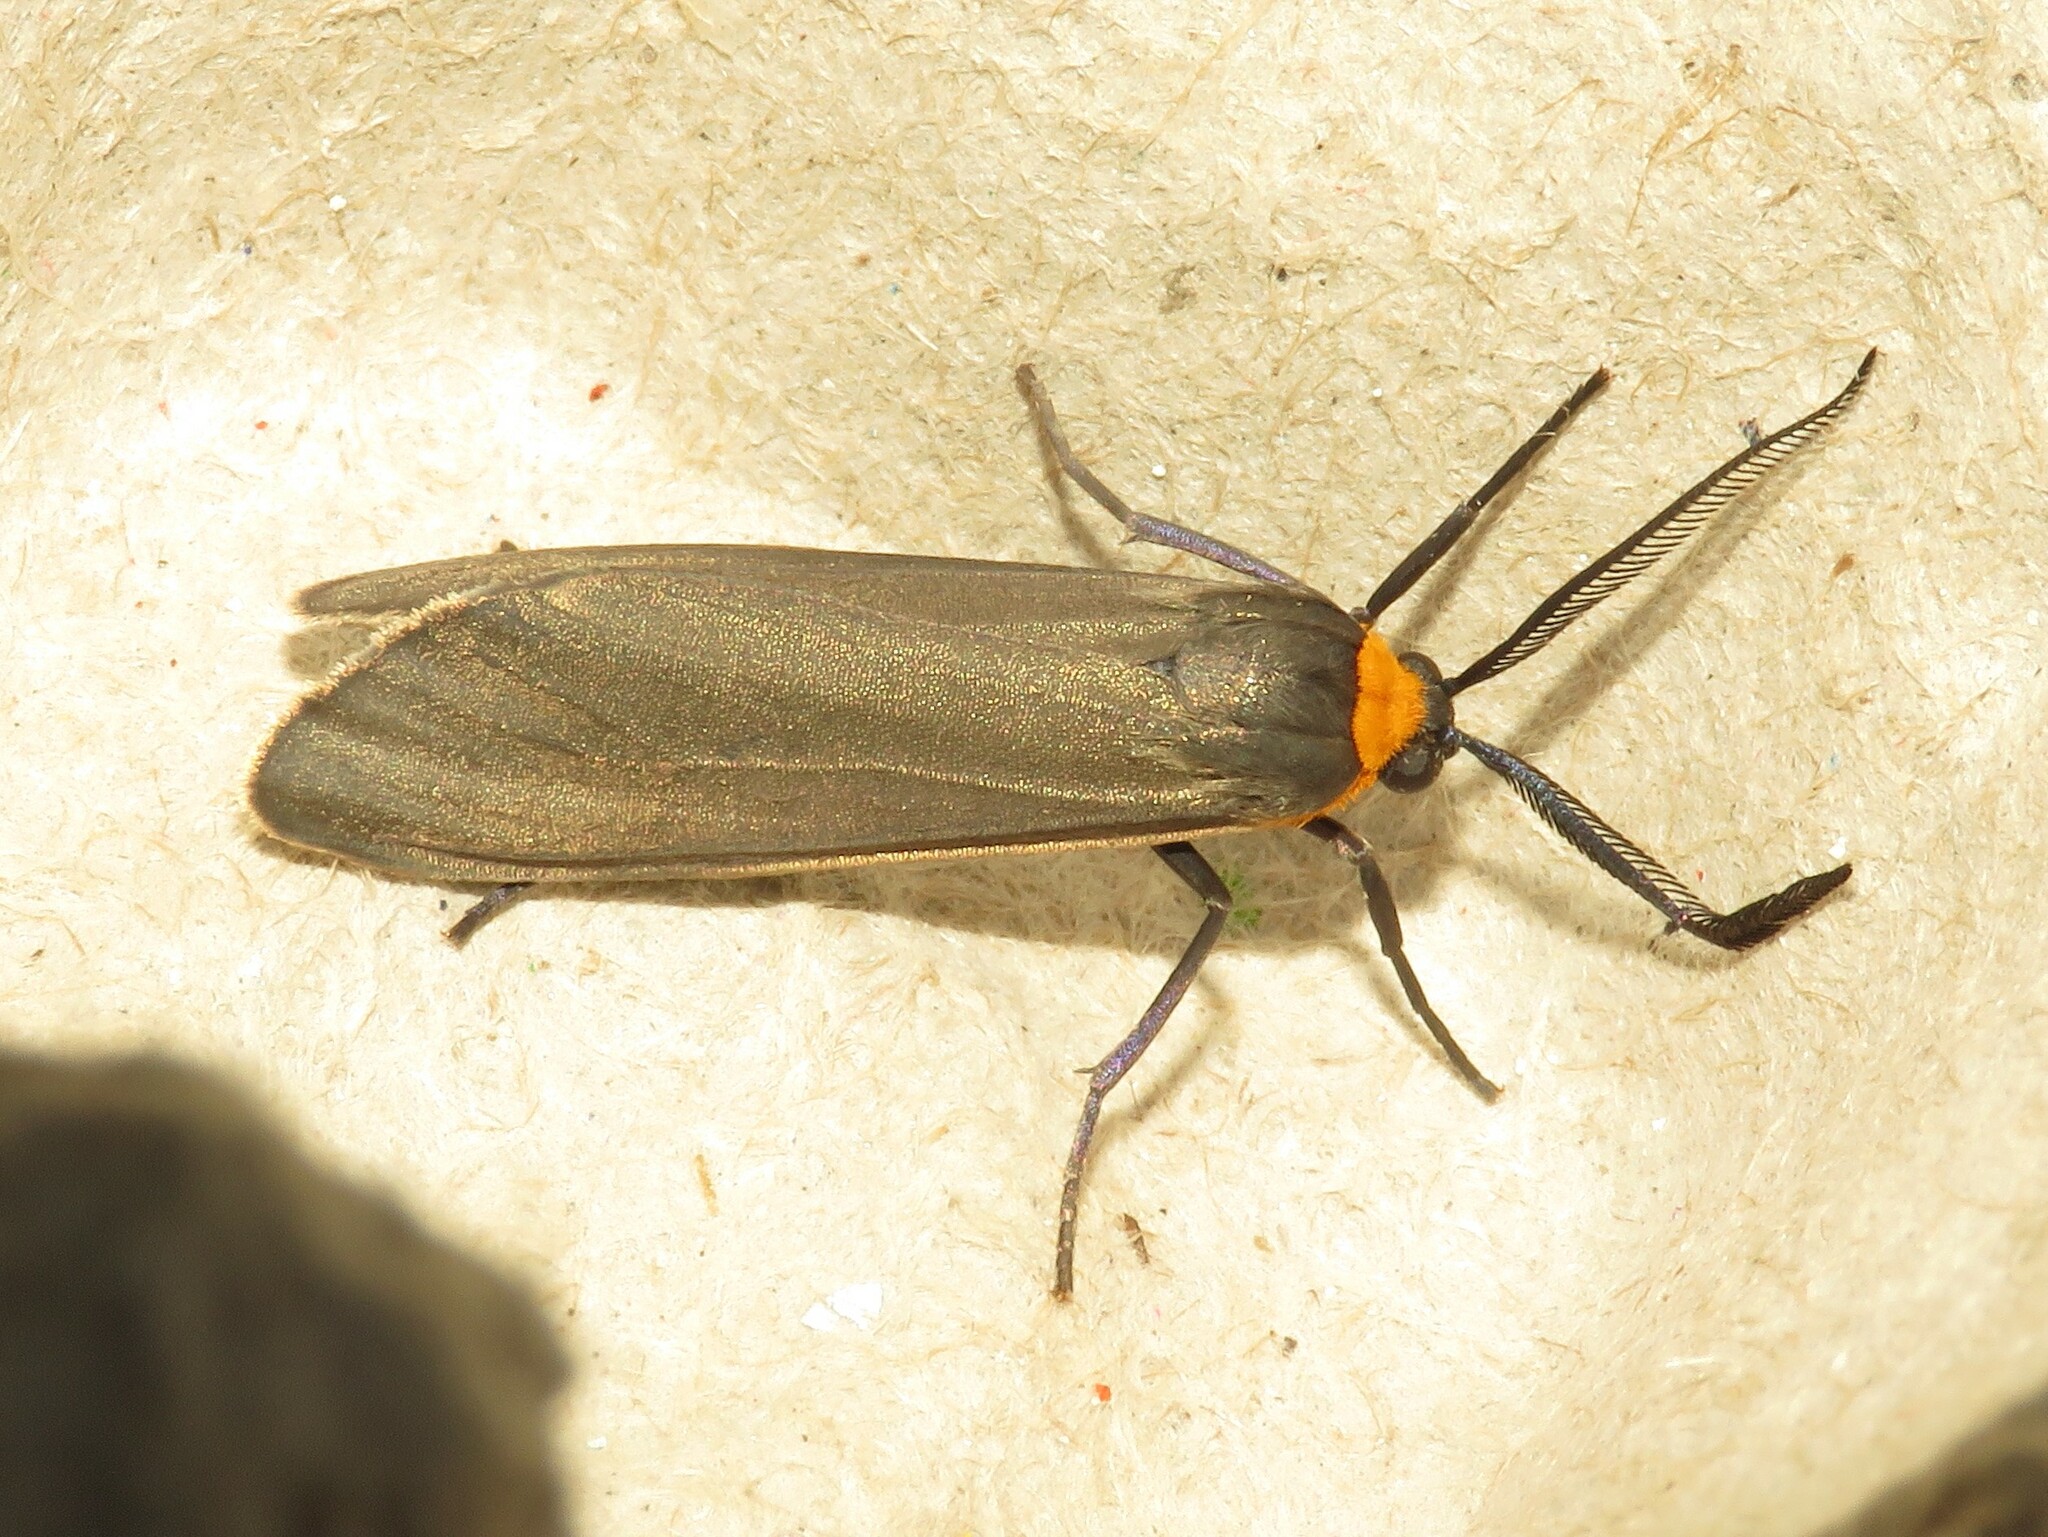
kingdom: Animalia
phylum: Arthropoda
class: Insecta
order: Lepidoptera
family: Erebidae
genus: Cisseps
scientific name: Cisseps fulvicollis
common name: Yellow-collared scape moth
